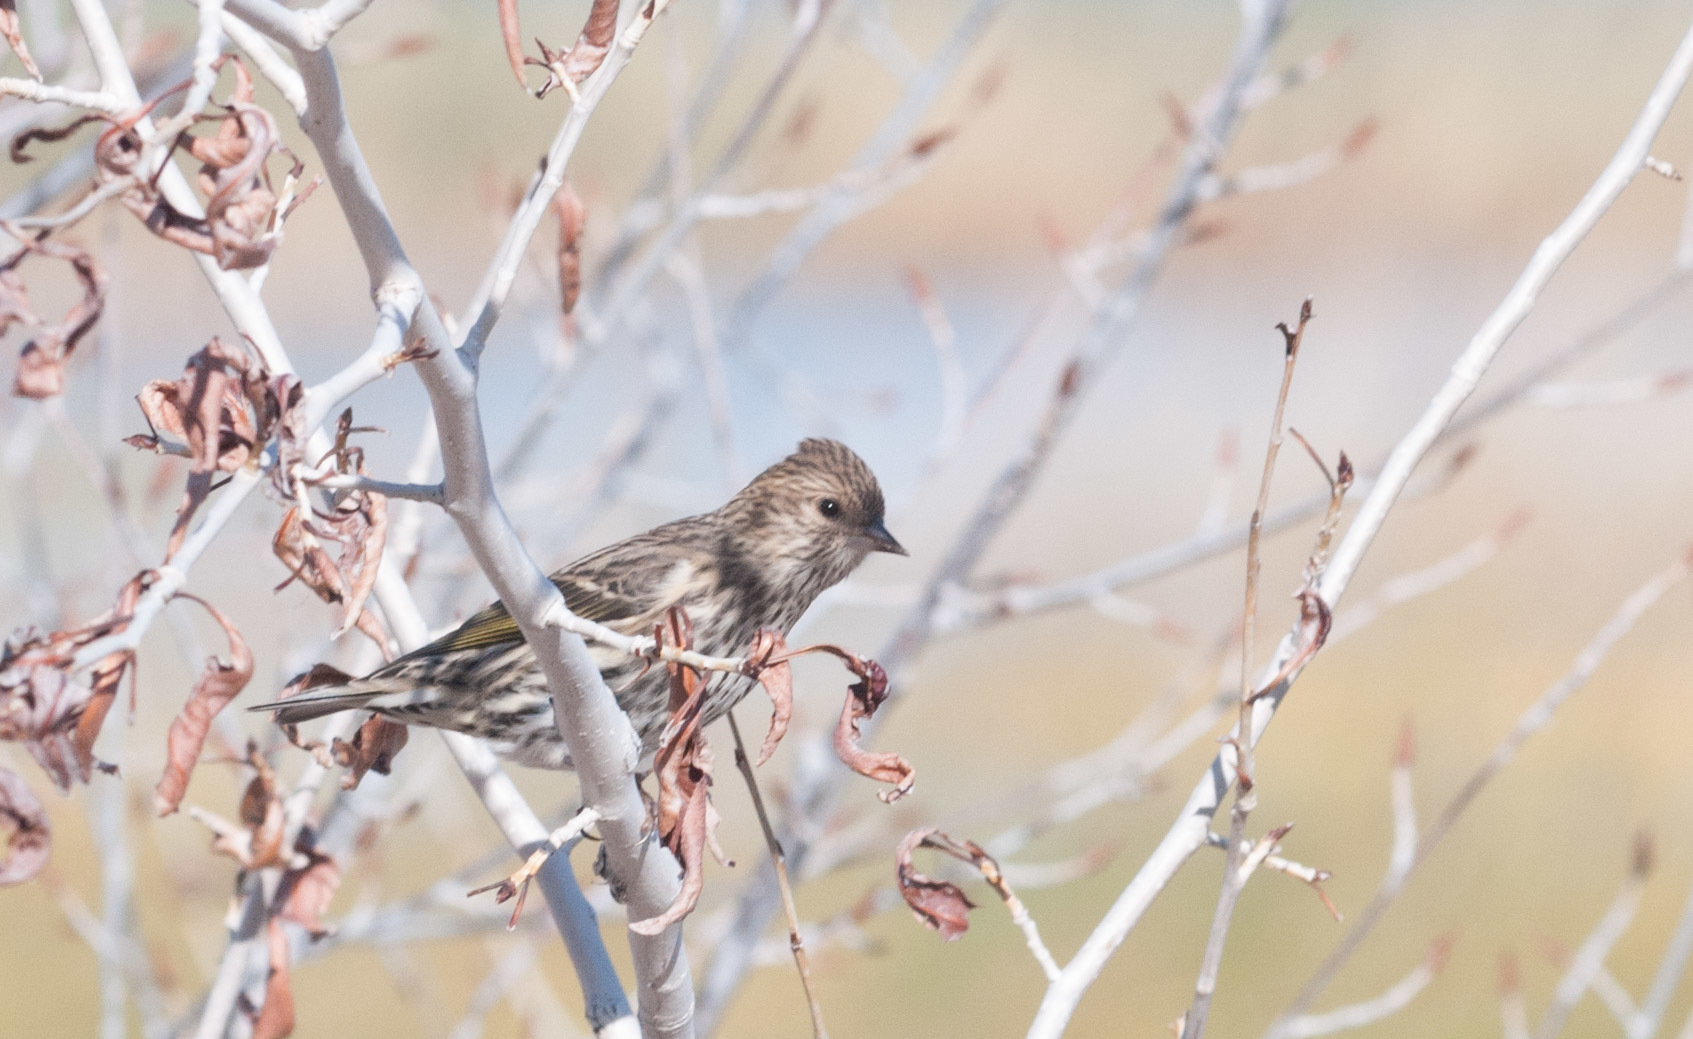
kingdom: Animalia
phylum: Chordata
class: Aves
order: Passeriformes
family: Fringillidae
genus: Spinus
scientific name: Spinus pinus
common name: Pine siskin
